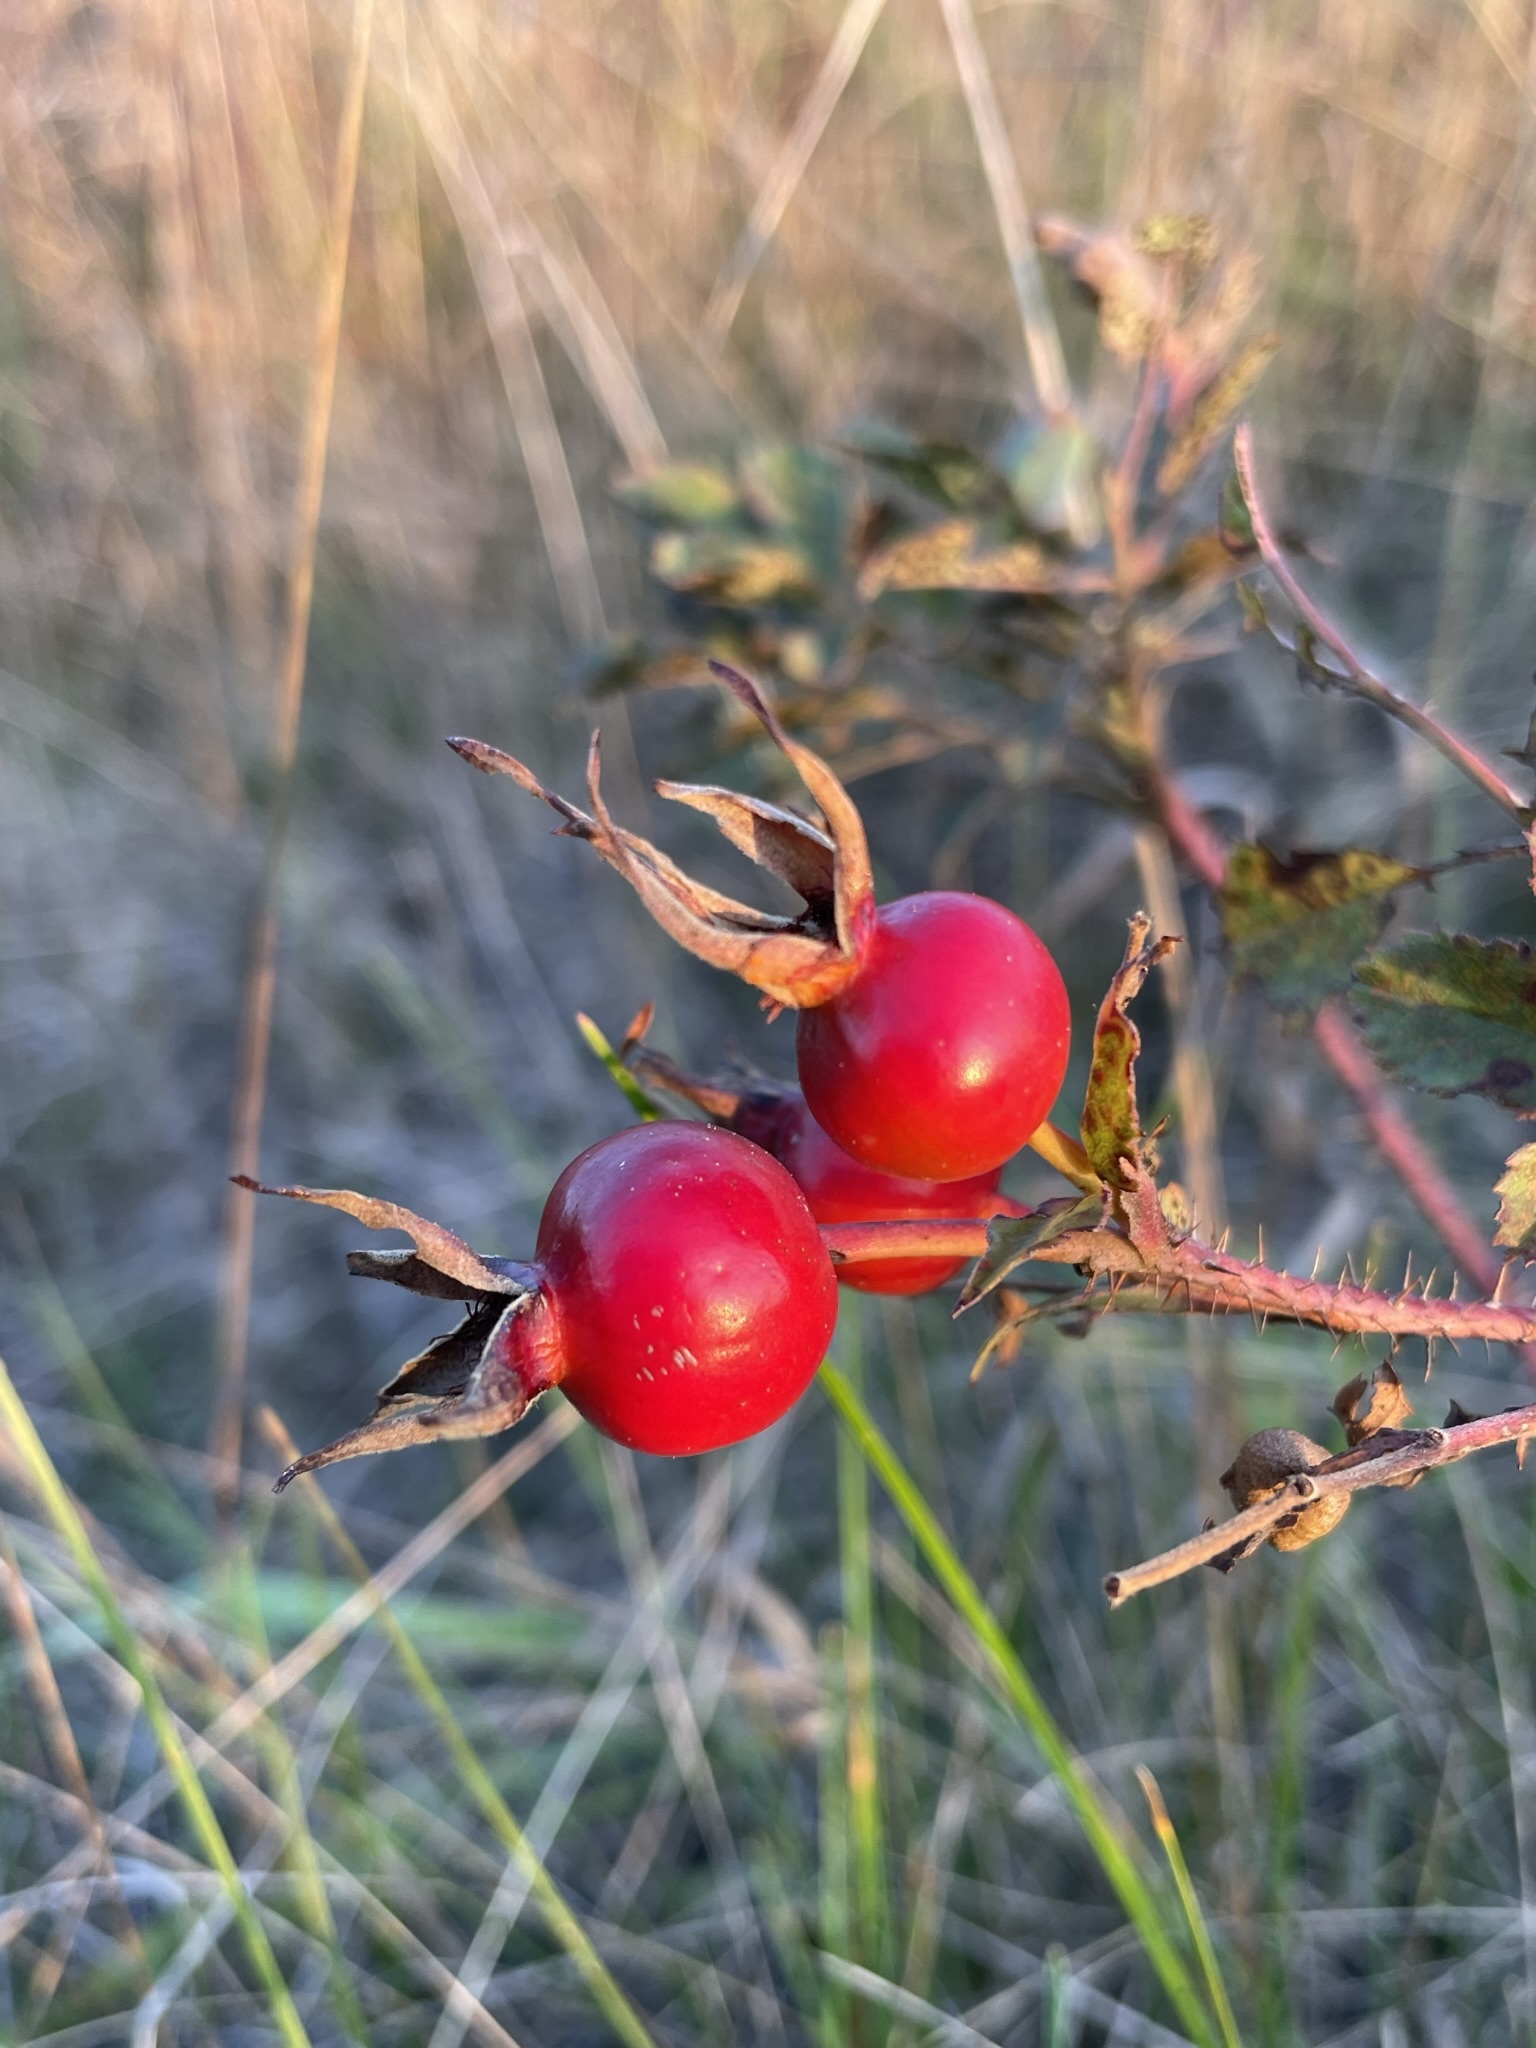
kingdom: Plantae
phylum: Tracheophyta
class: Magnoliopsida
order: Rosales
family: Rosaceae
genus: Rosa
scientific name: Rosa arkansana
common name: Prairie rose
